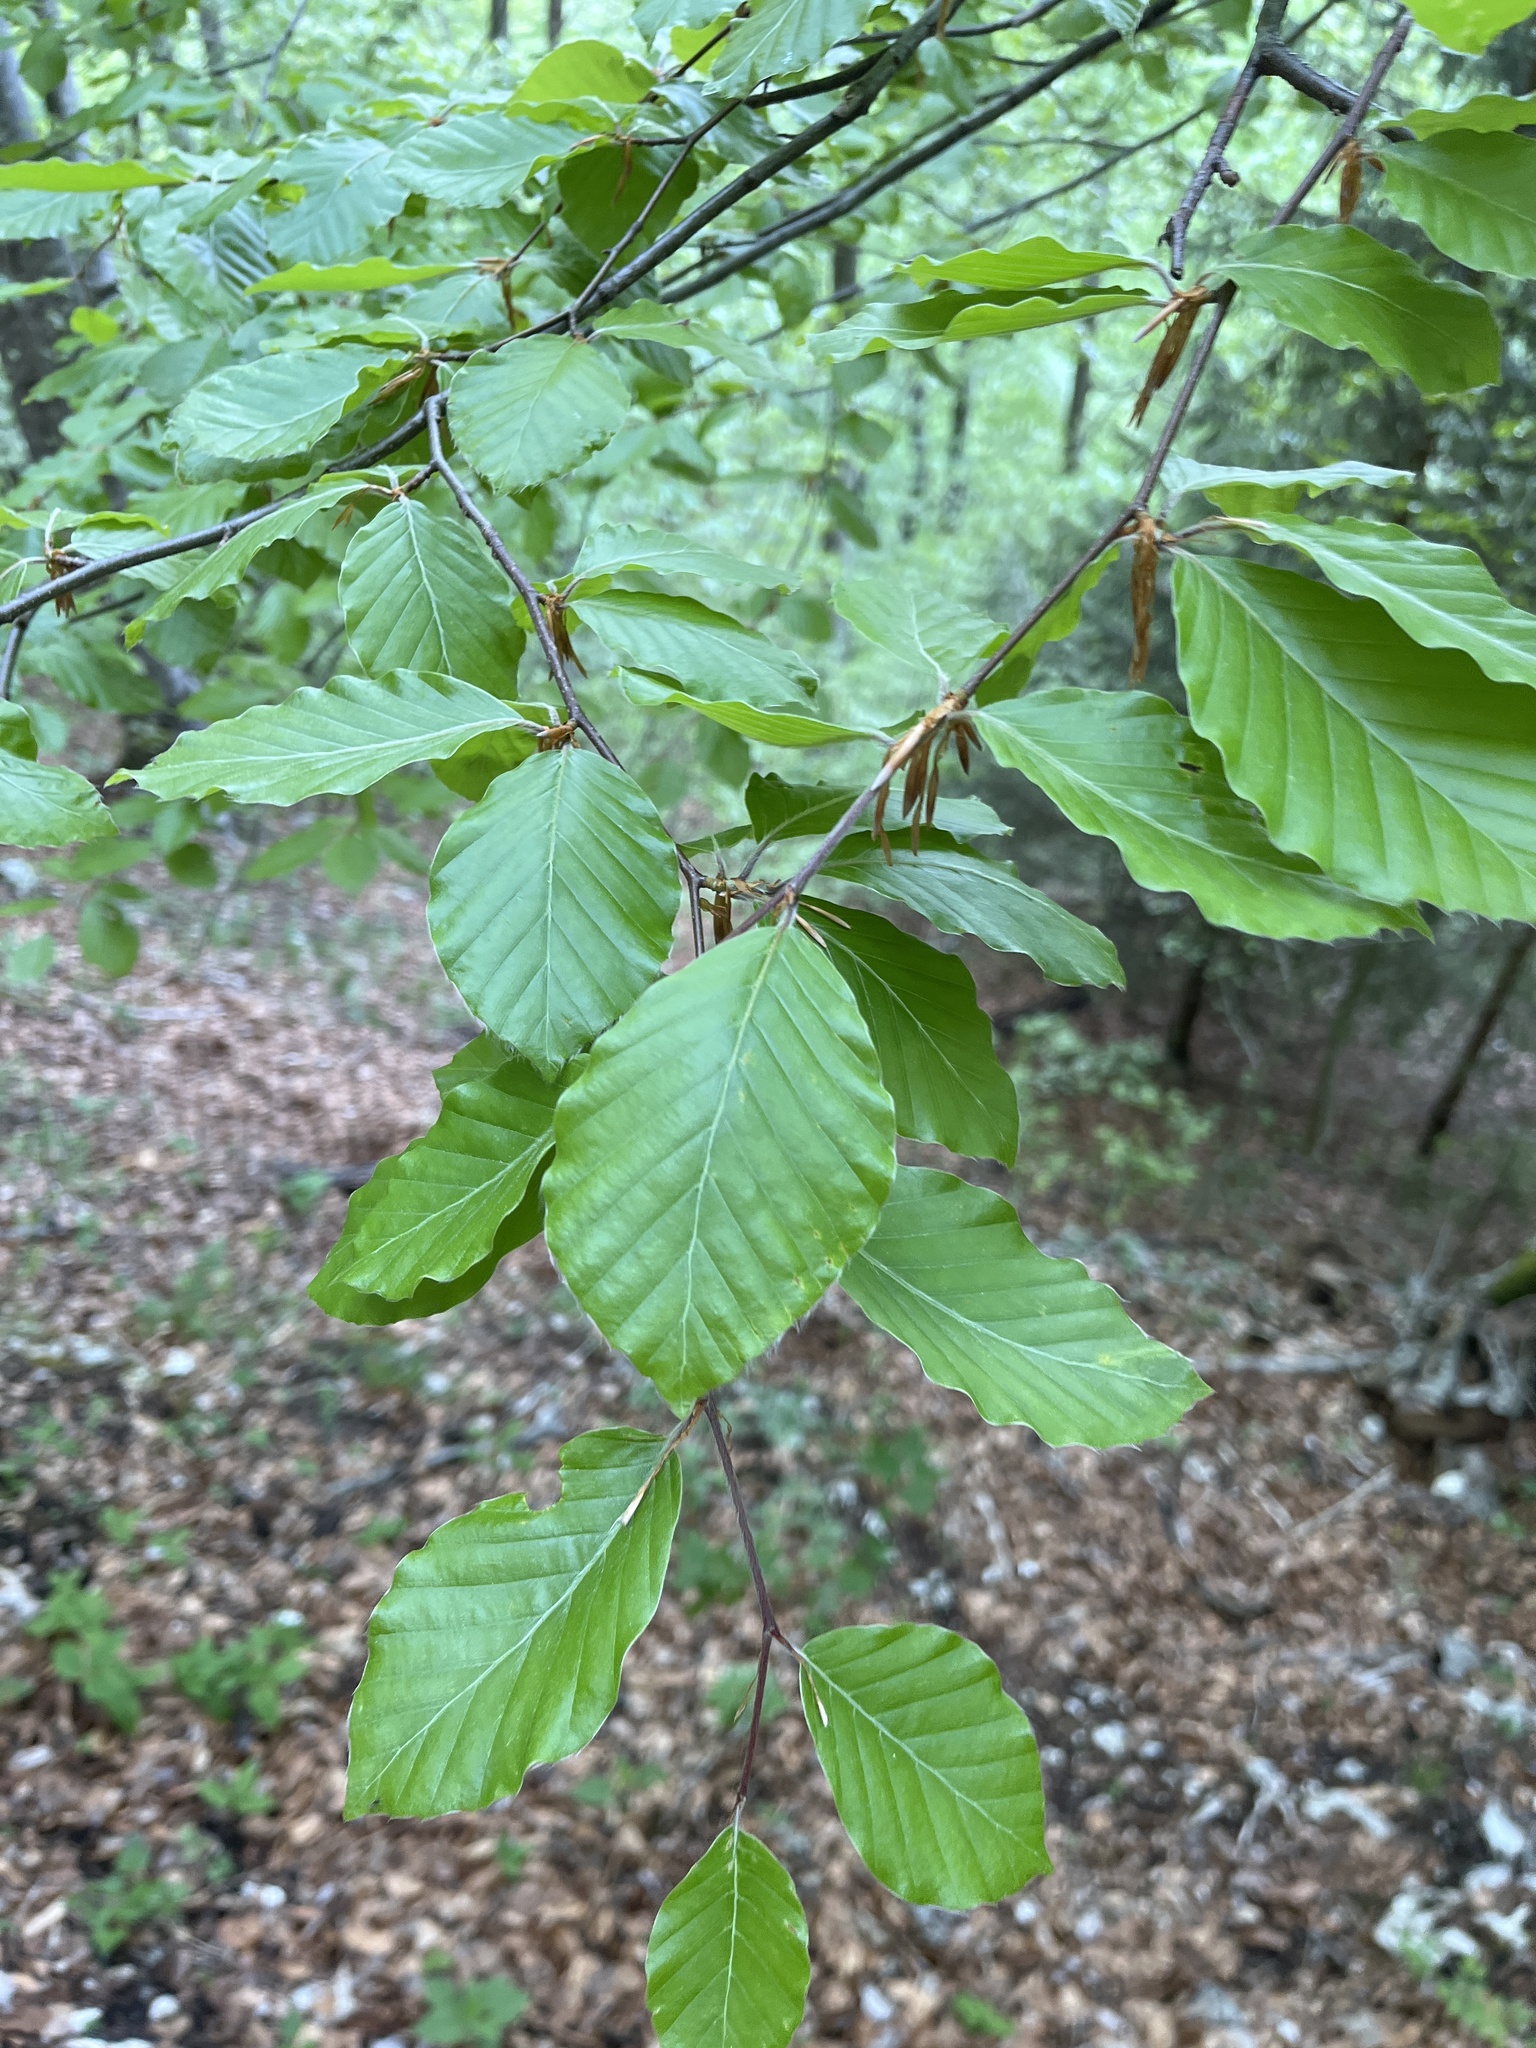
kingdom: Plantae
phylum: Tracheophyta
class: Magnoliopsida
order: Fagales
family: Fagaceae
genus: Fagus
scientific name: Fagus sylvatica
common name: Beech
